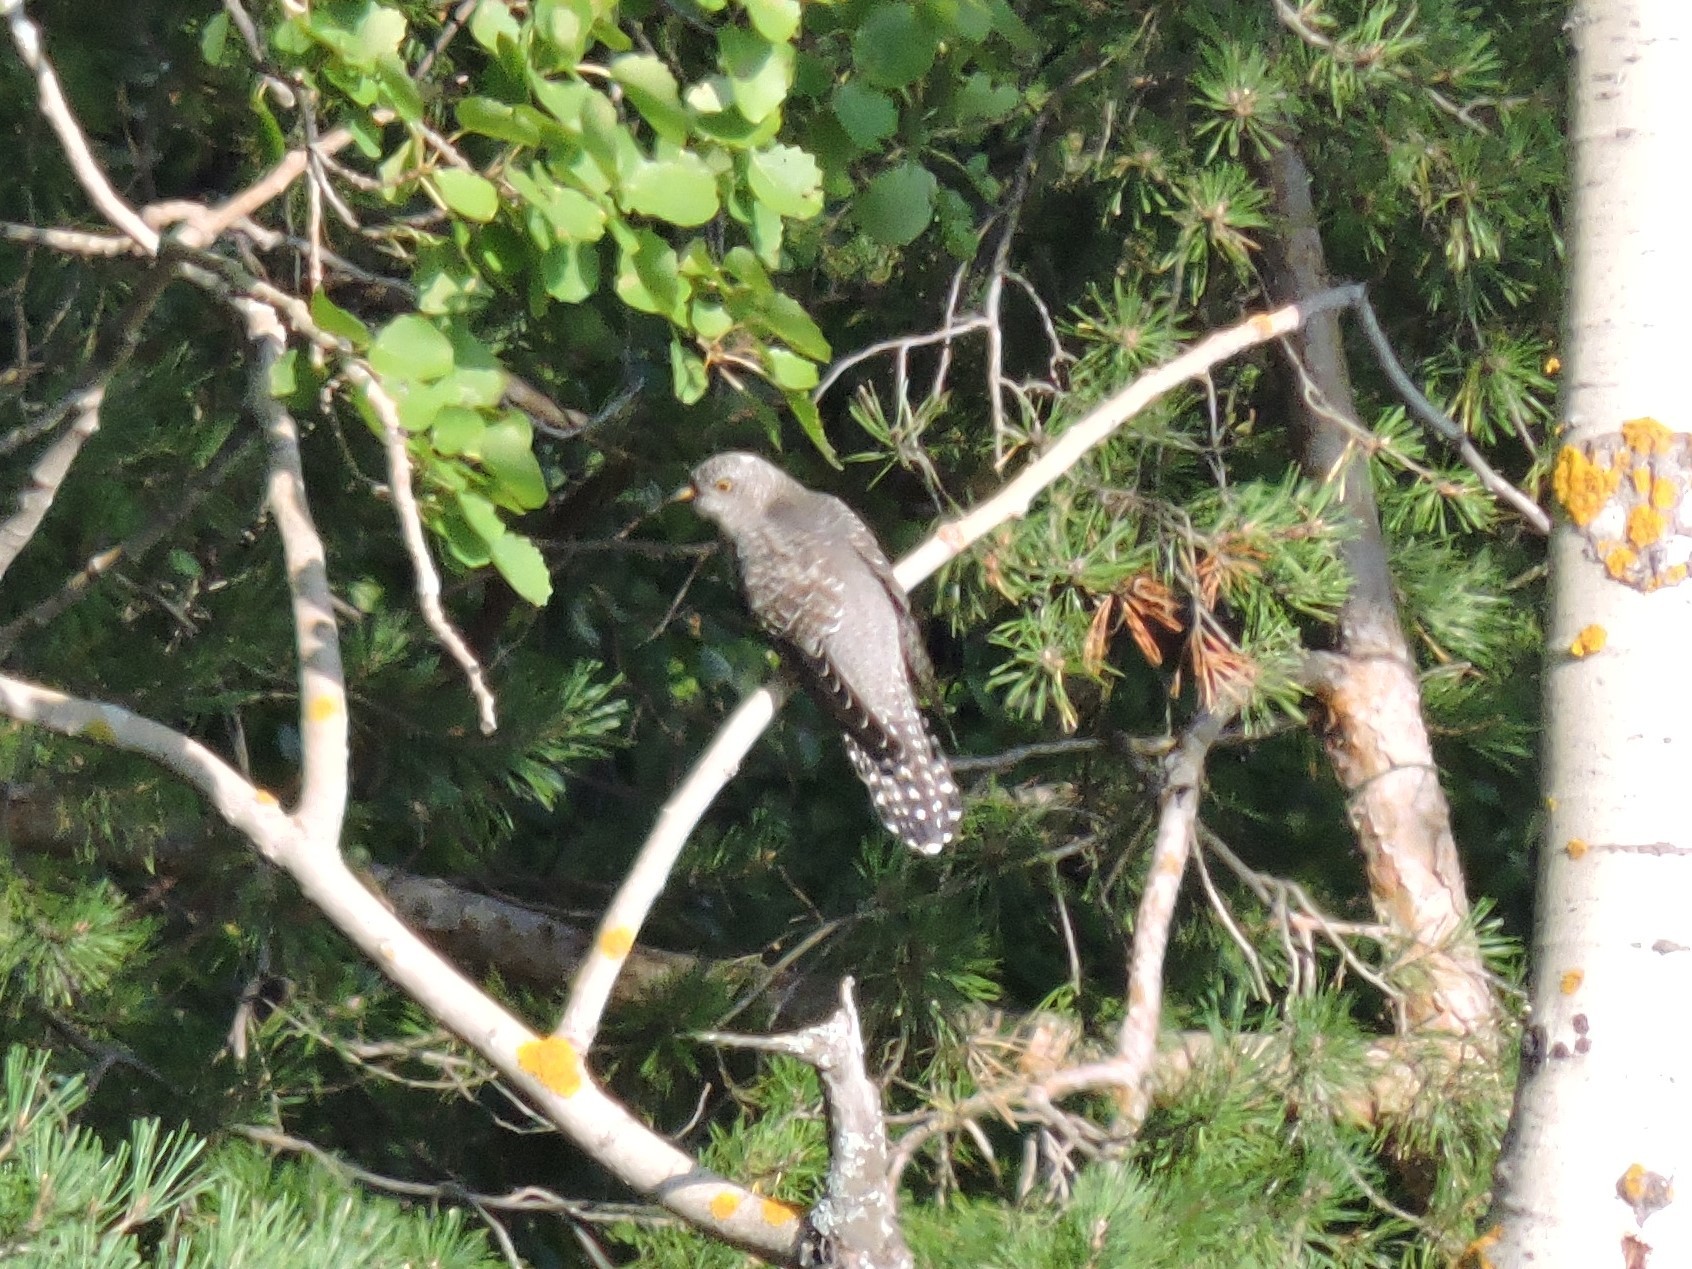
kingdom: Animalia
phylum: Chordata
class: Aves
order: Cuculiformes
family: Cuculidae
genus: Cuculus
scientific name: Cuculus canorus
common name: Common cuckoo
